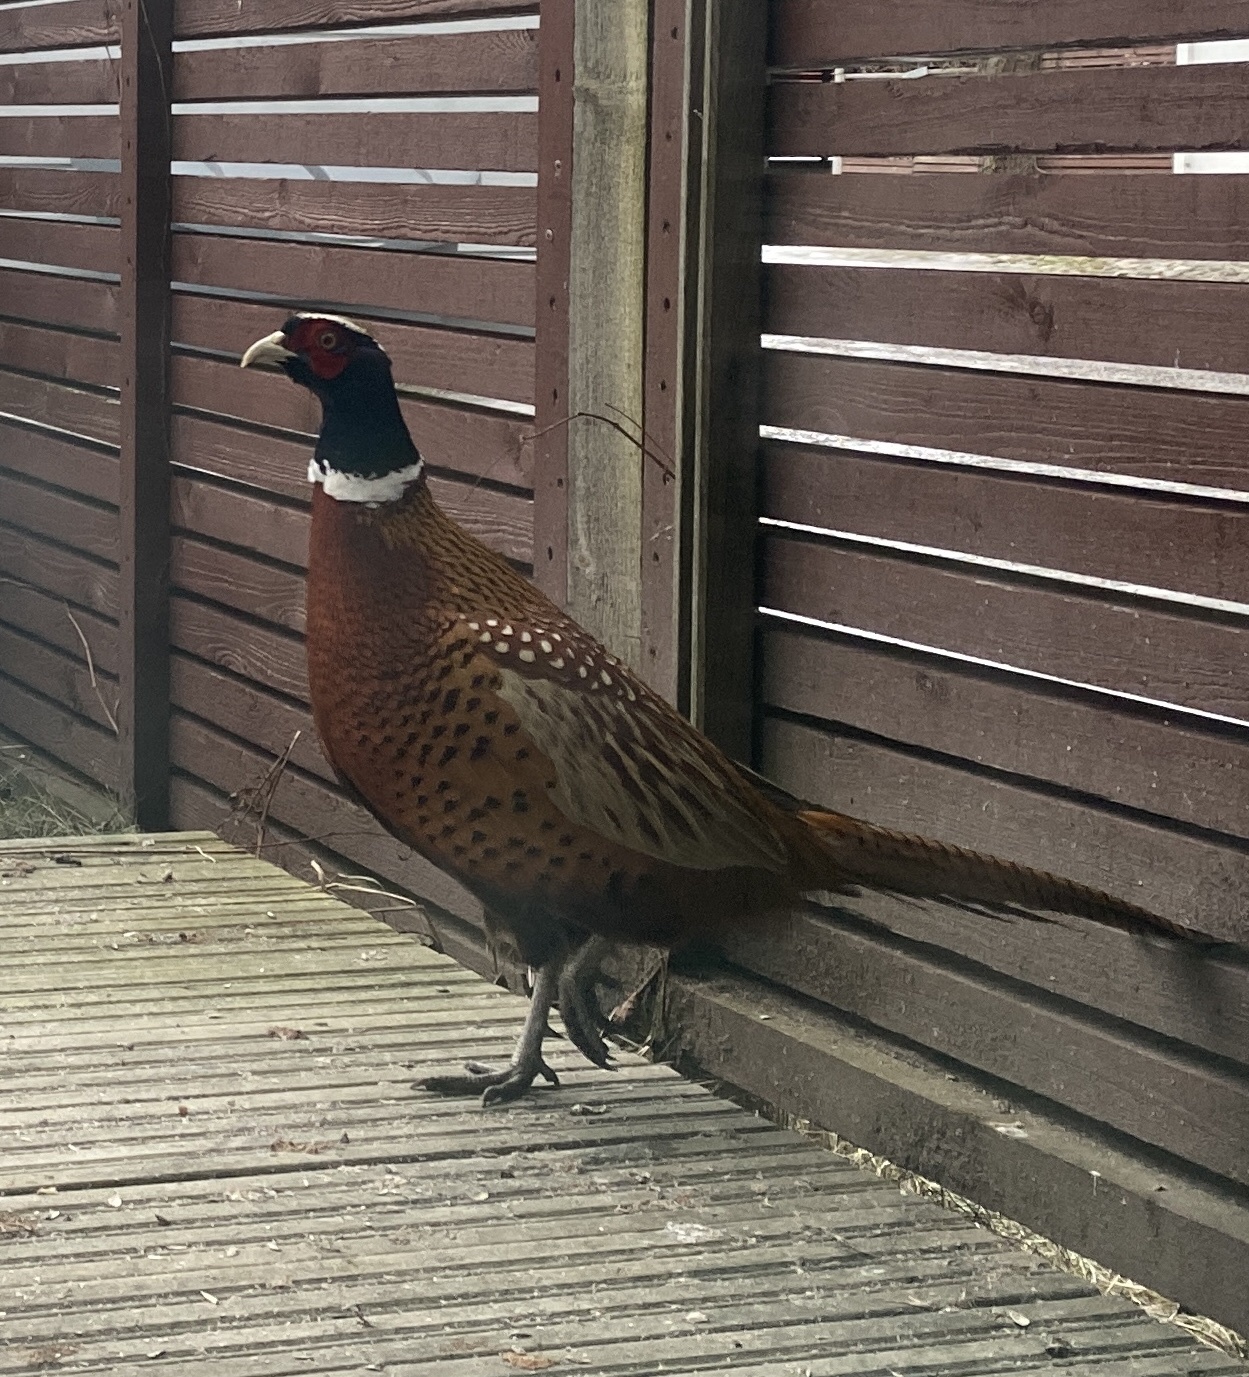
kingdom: Animalia
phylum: Chordata
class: Aves
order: Galliformes
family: Phasianidae
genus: Phasianus
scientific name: Phasianus colchicus
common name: Common pheasant
